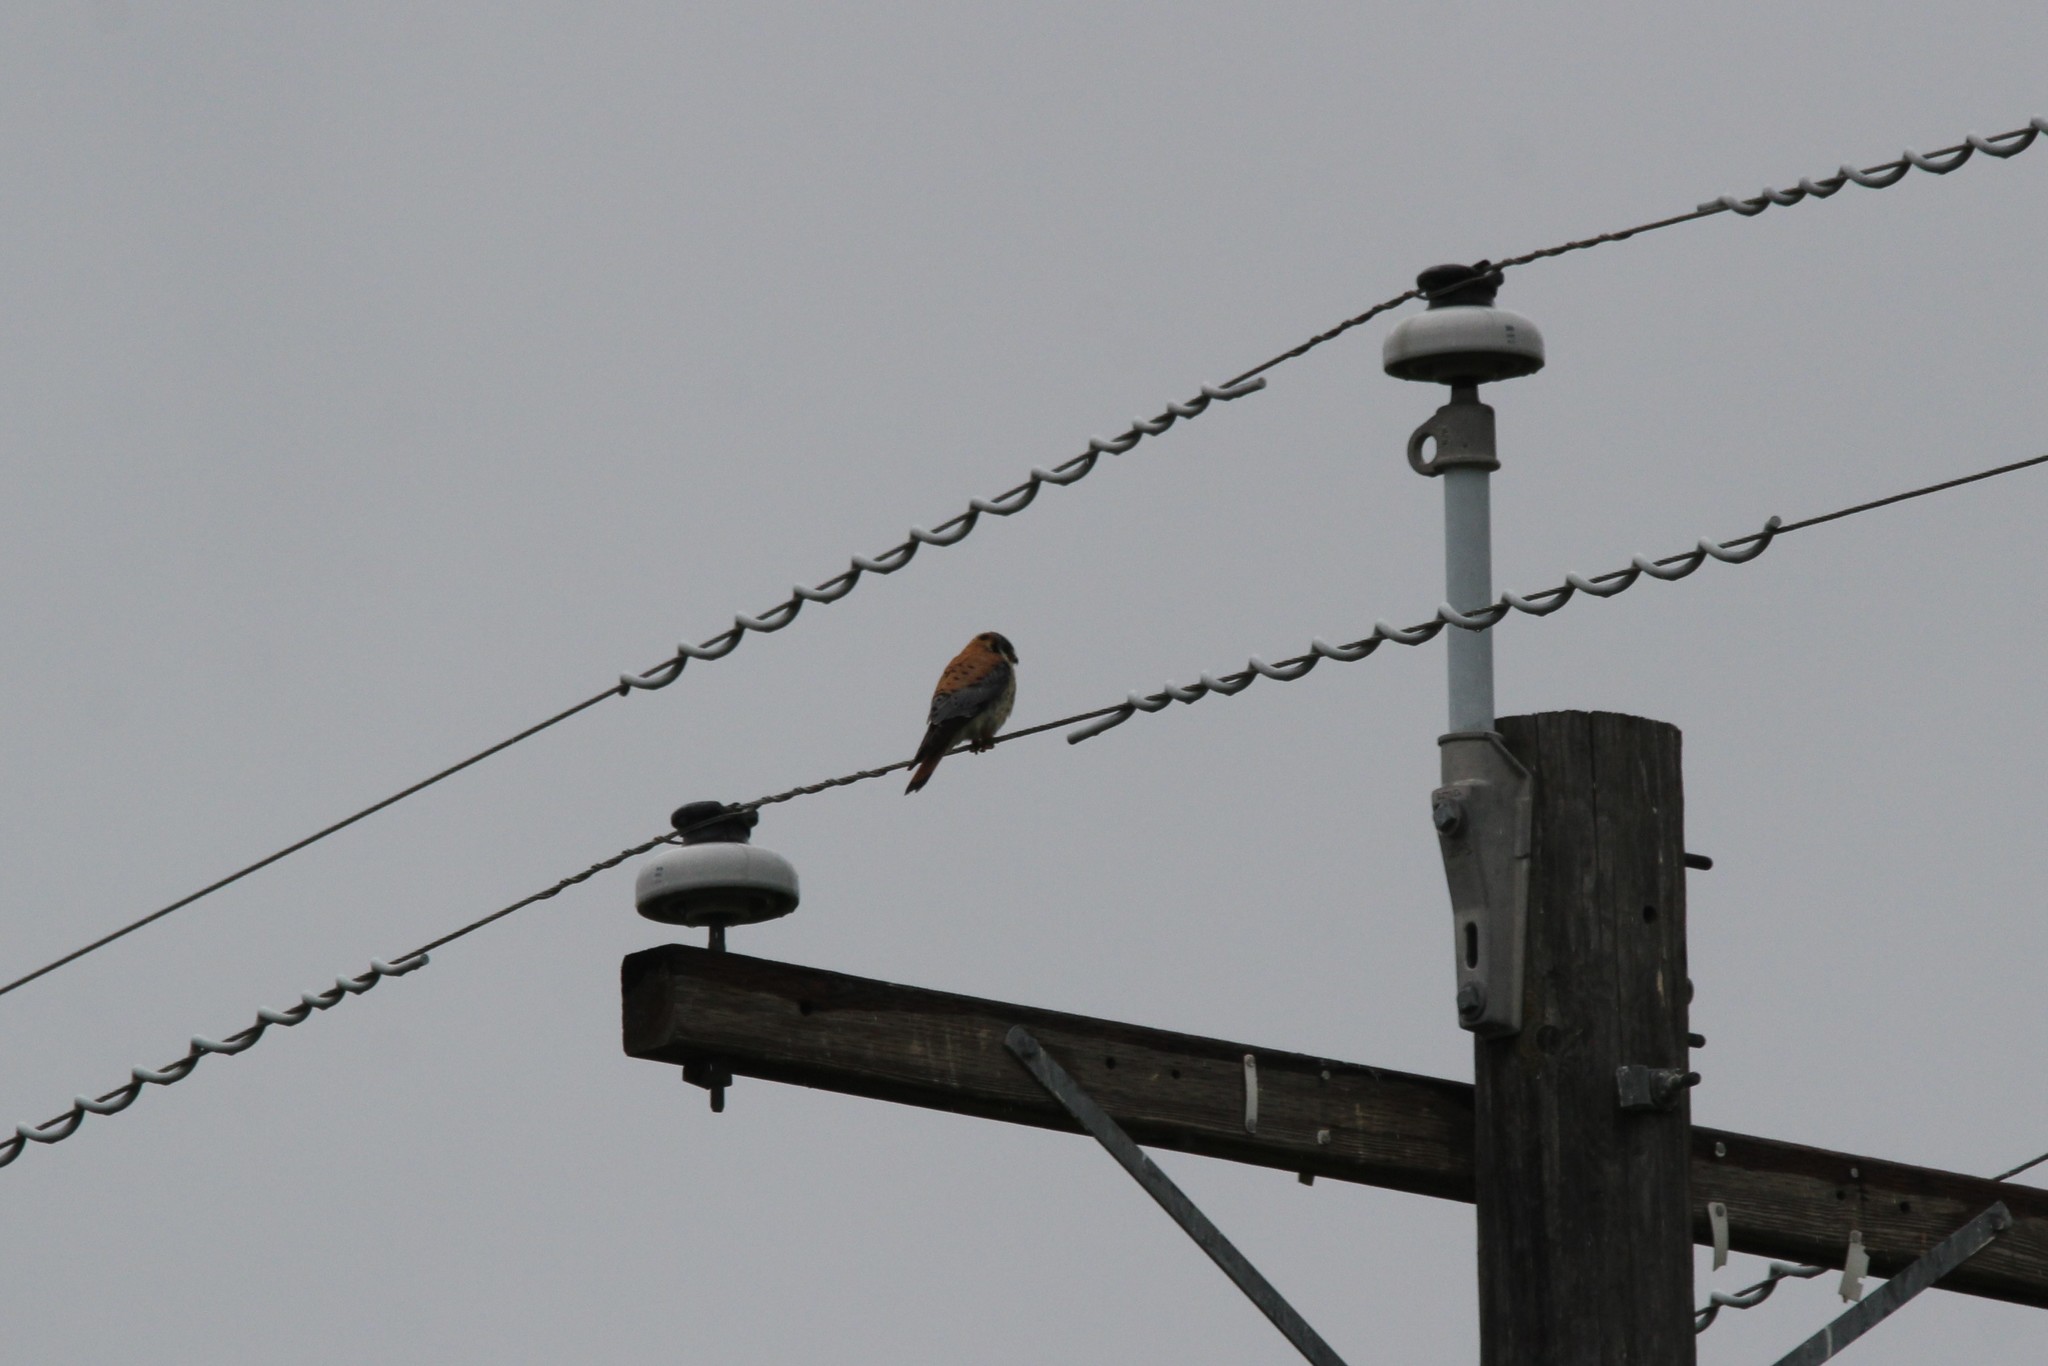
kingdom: Animalia
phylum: Chordata
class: Aves
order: Falconiformes
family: Falconidae
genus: Falco
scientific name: Falco sparverius
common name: American kestrel
